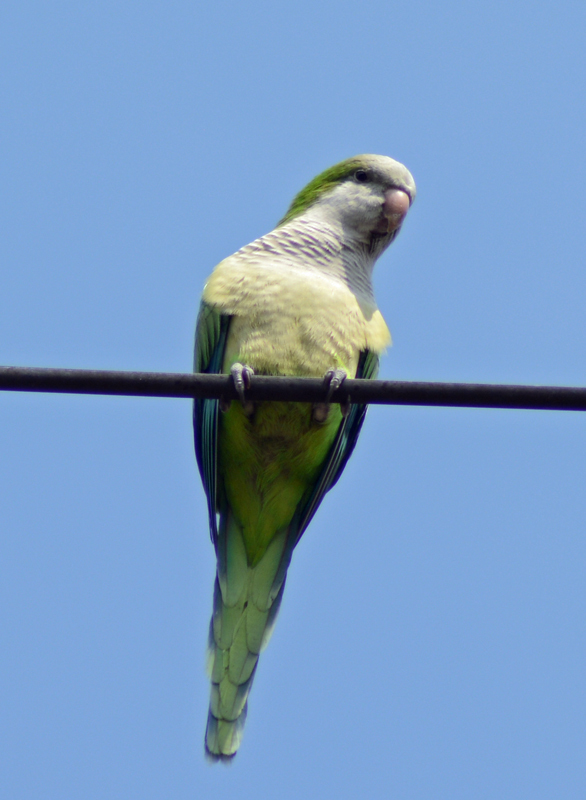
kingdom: Animalia
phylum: Chordata
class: Aves
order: Psittaciformes
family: Psittacidae
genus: Myiopsitta
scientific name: Myiopsitta monachus
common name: Monk parakeet
